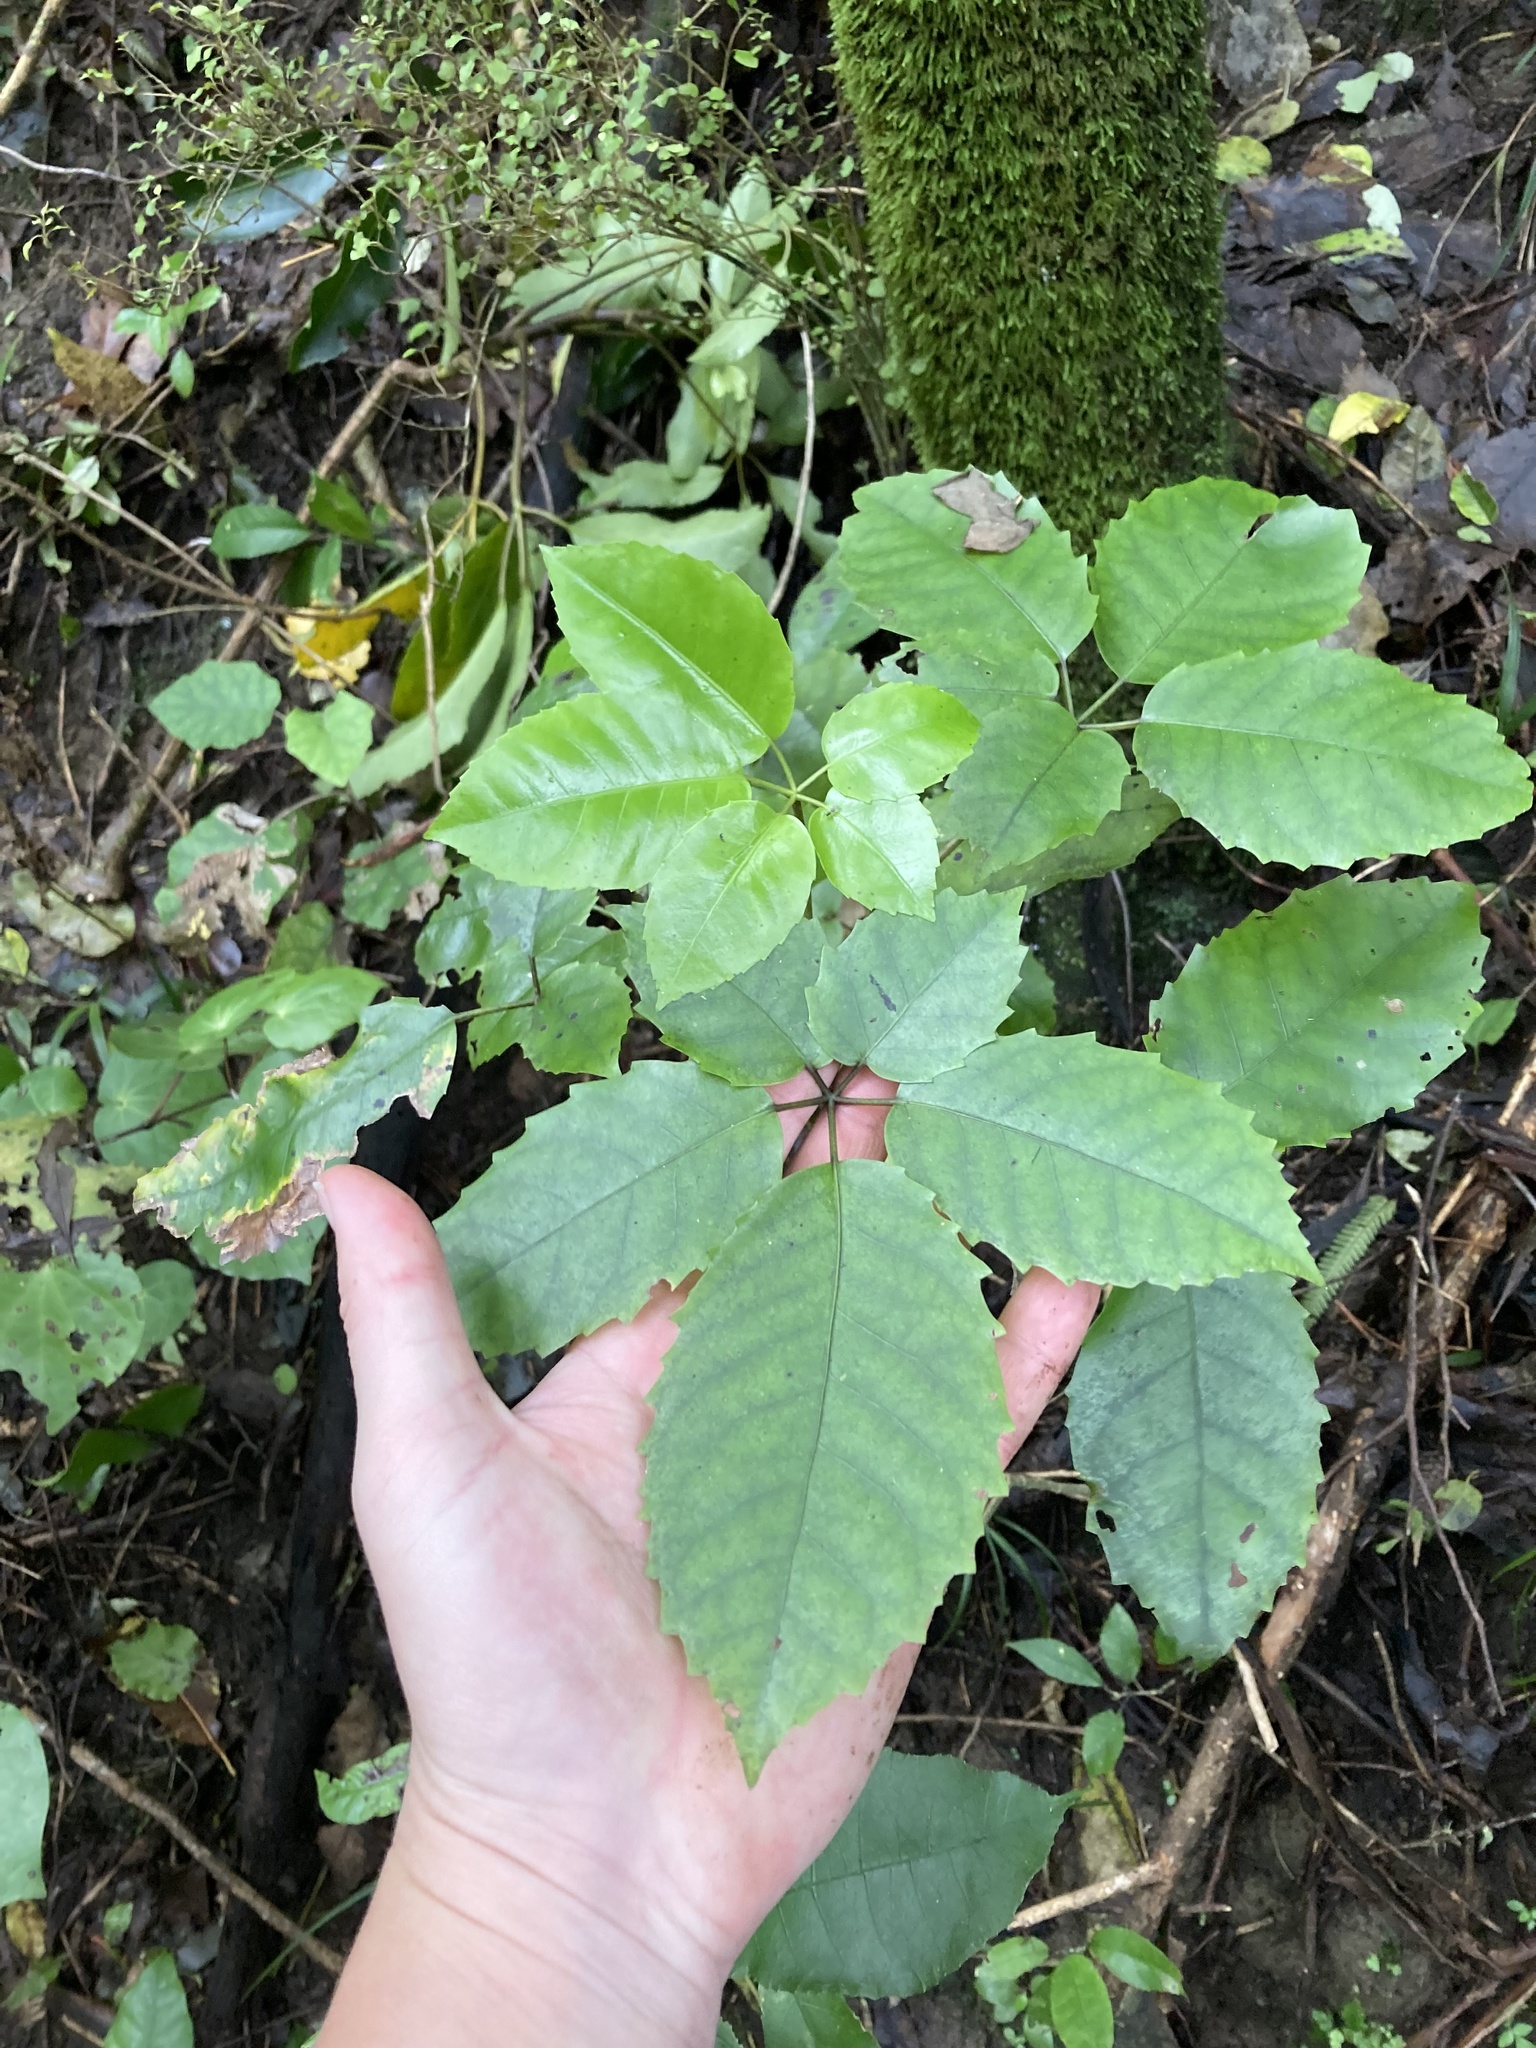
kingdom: Plantae
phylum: Tracheophyta
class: Magnoliopsida
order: Apiales
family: Araliaceae
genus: Neopanax
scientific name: Neopanax arboreus
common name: Five-fingers
